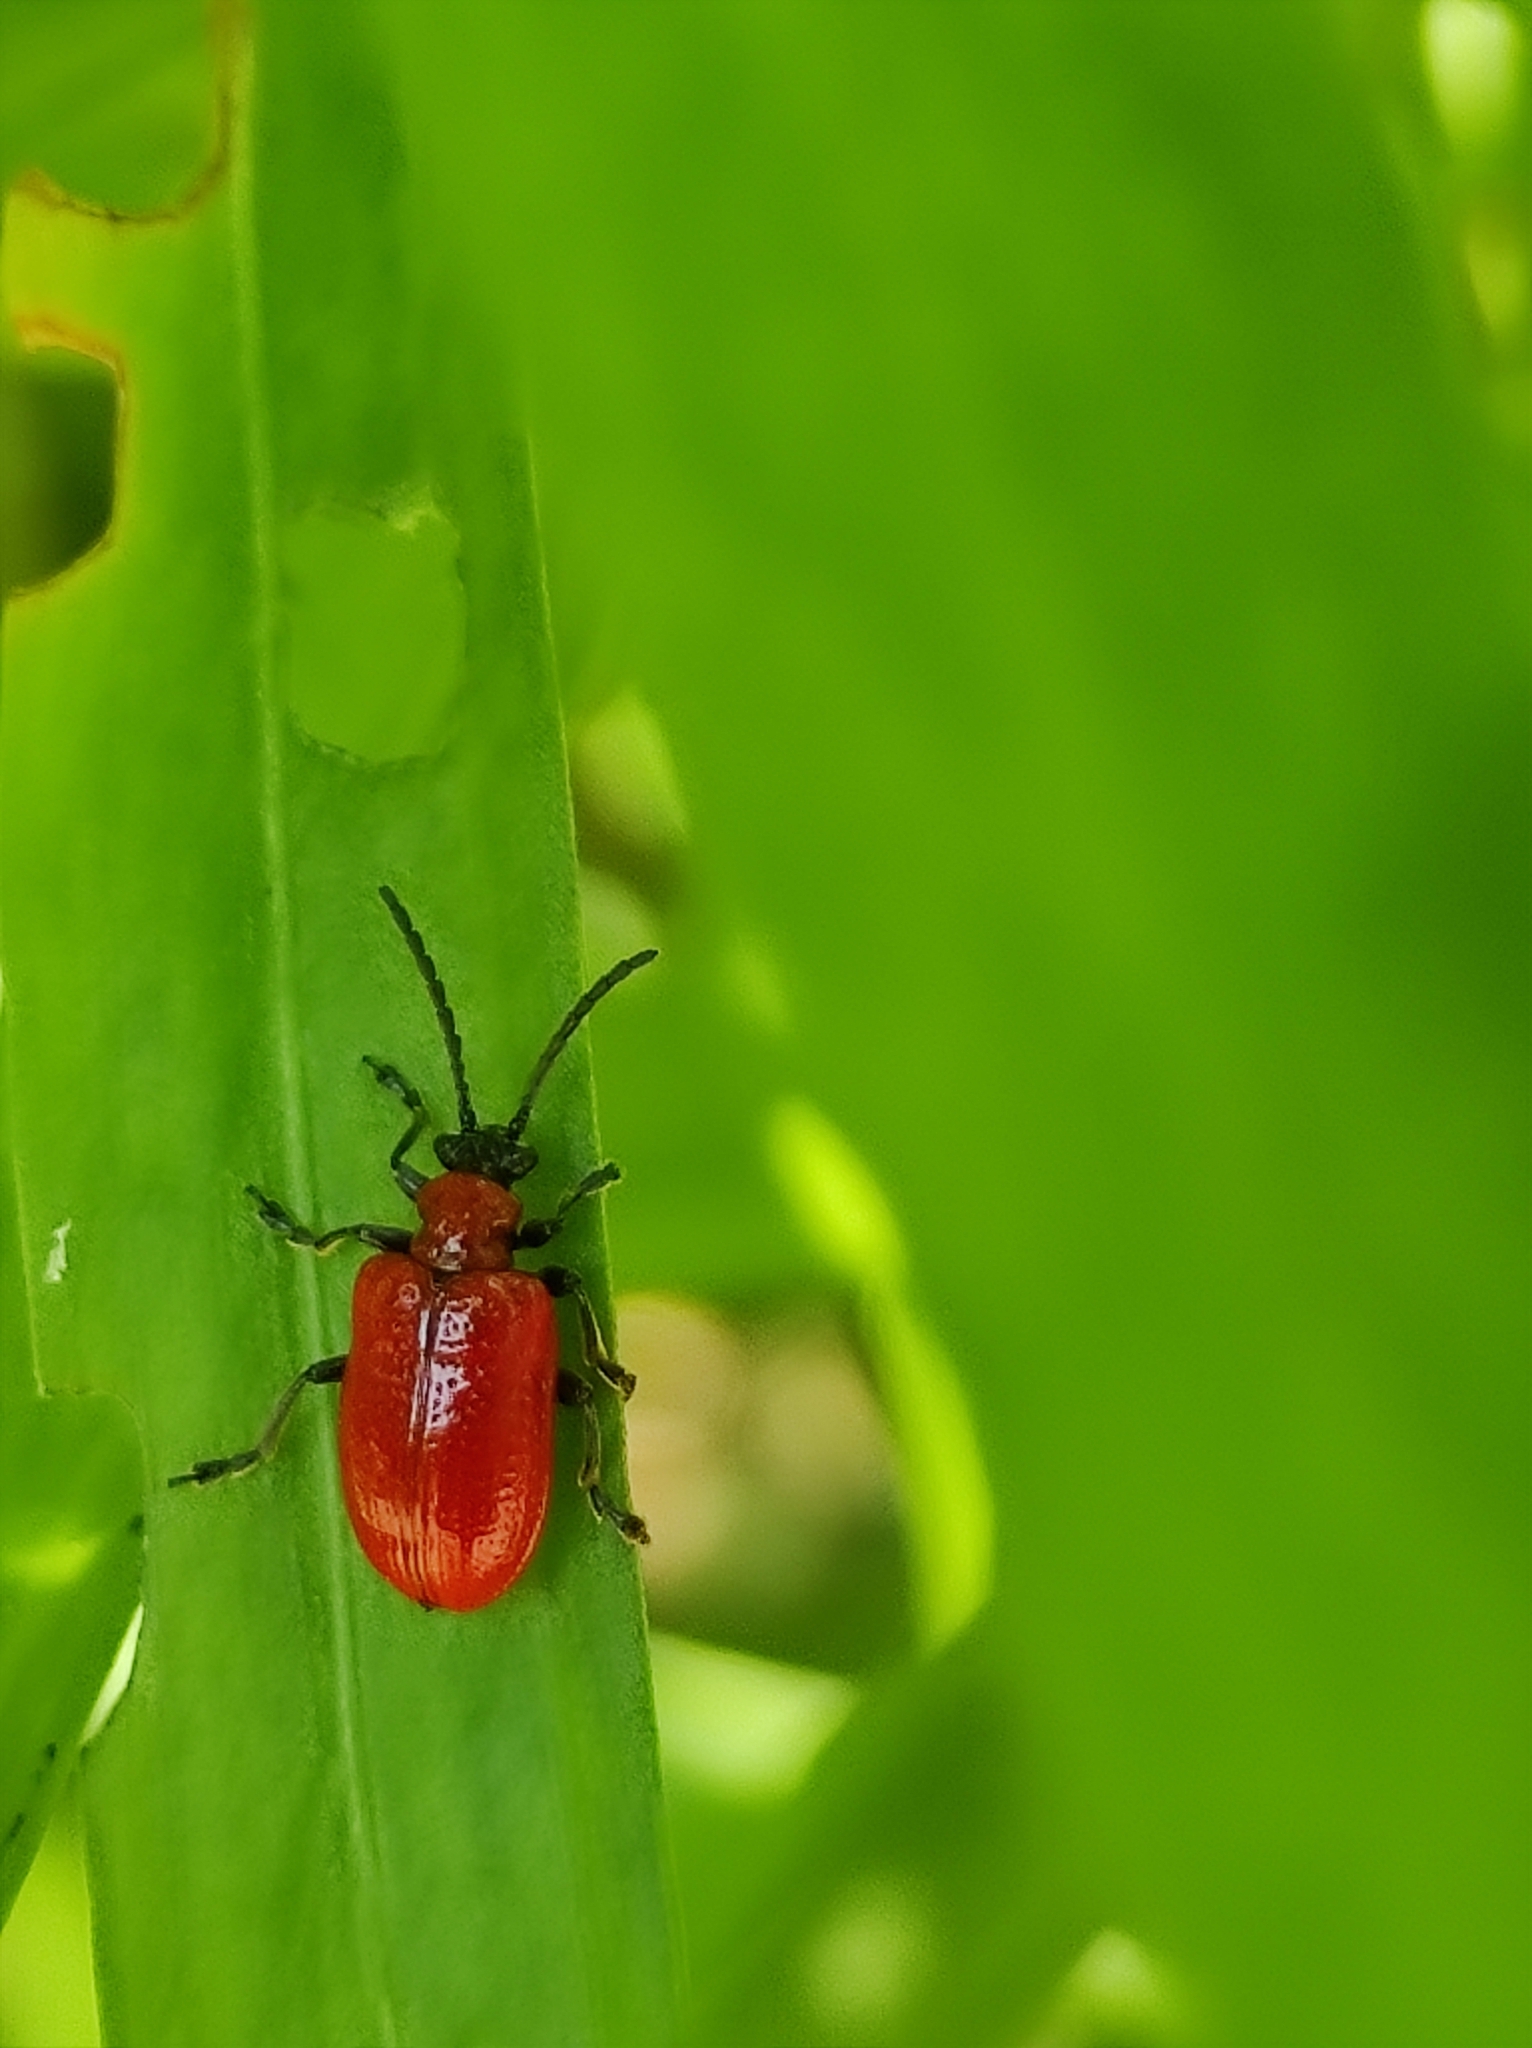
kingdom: Animalia
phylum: Arthropoda
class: Insecta
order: Coleoptera
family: Chrysomelidae
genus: Lilioceris
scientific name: Lilioceris lilii
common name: Lily beetle
